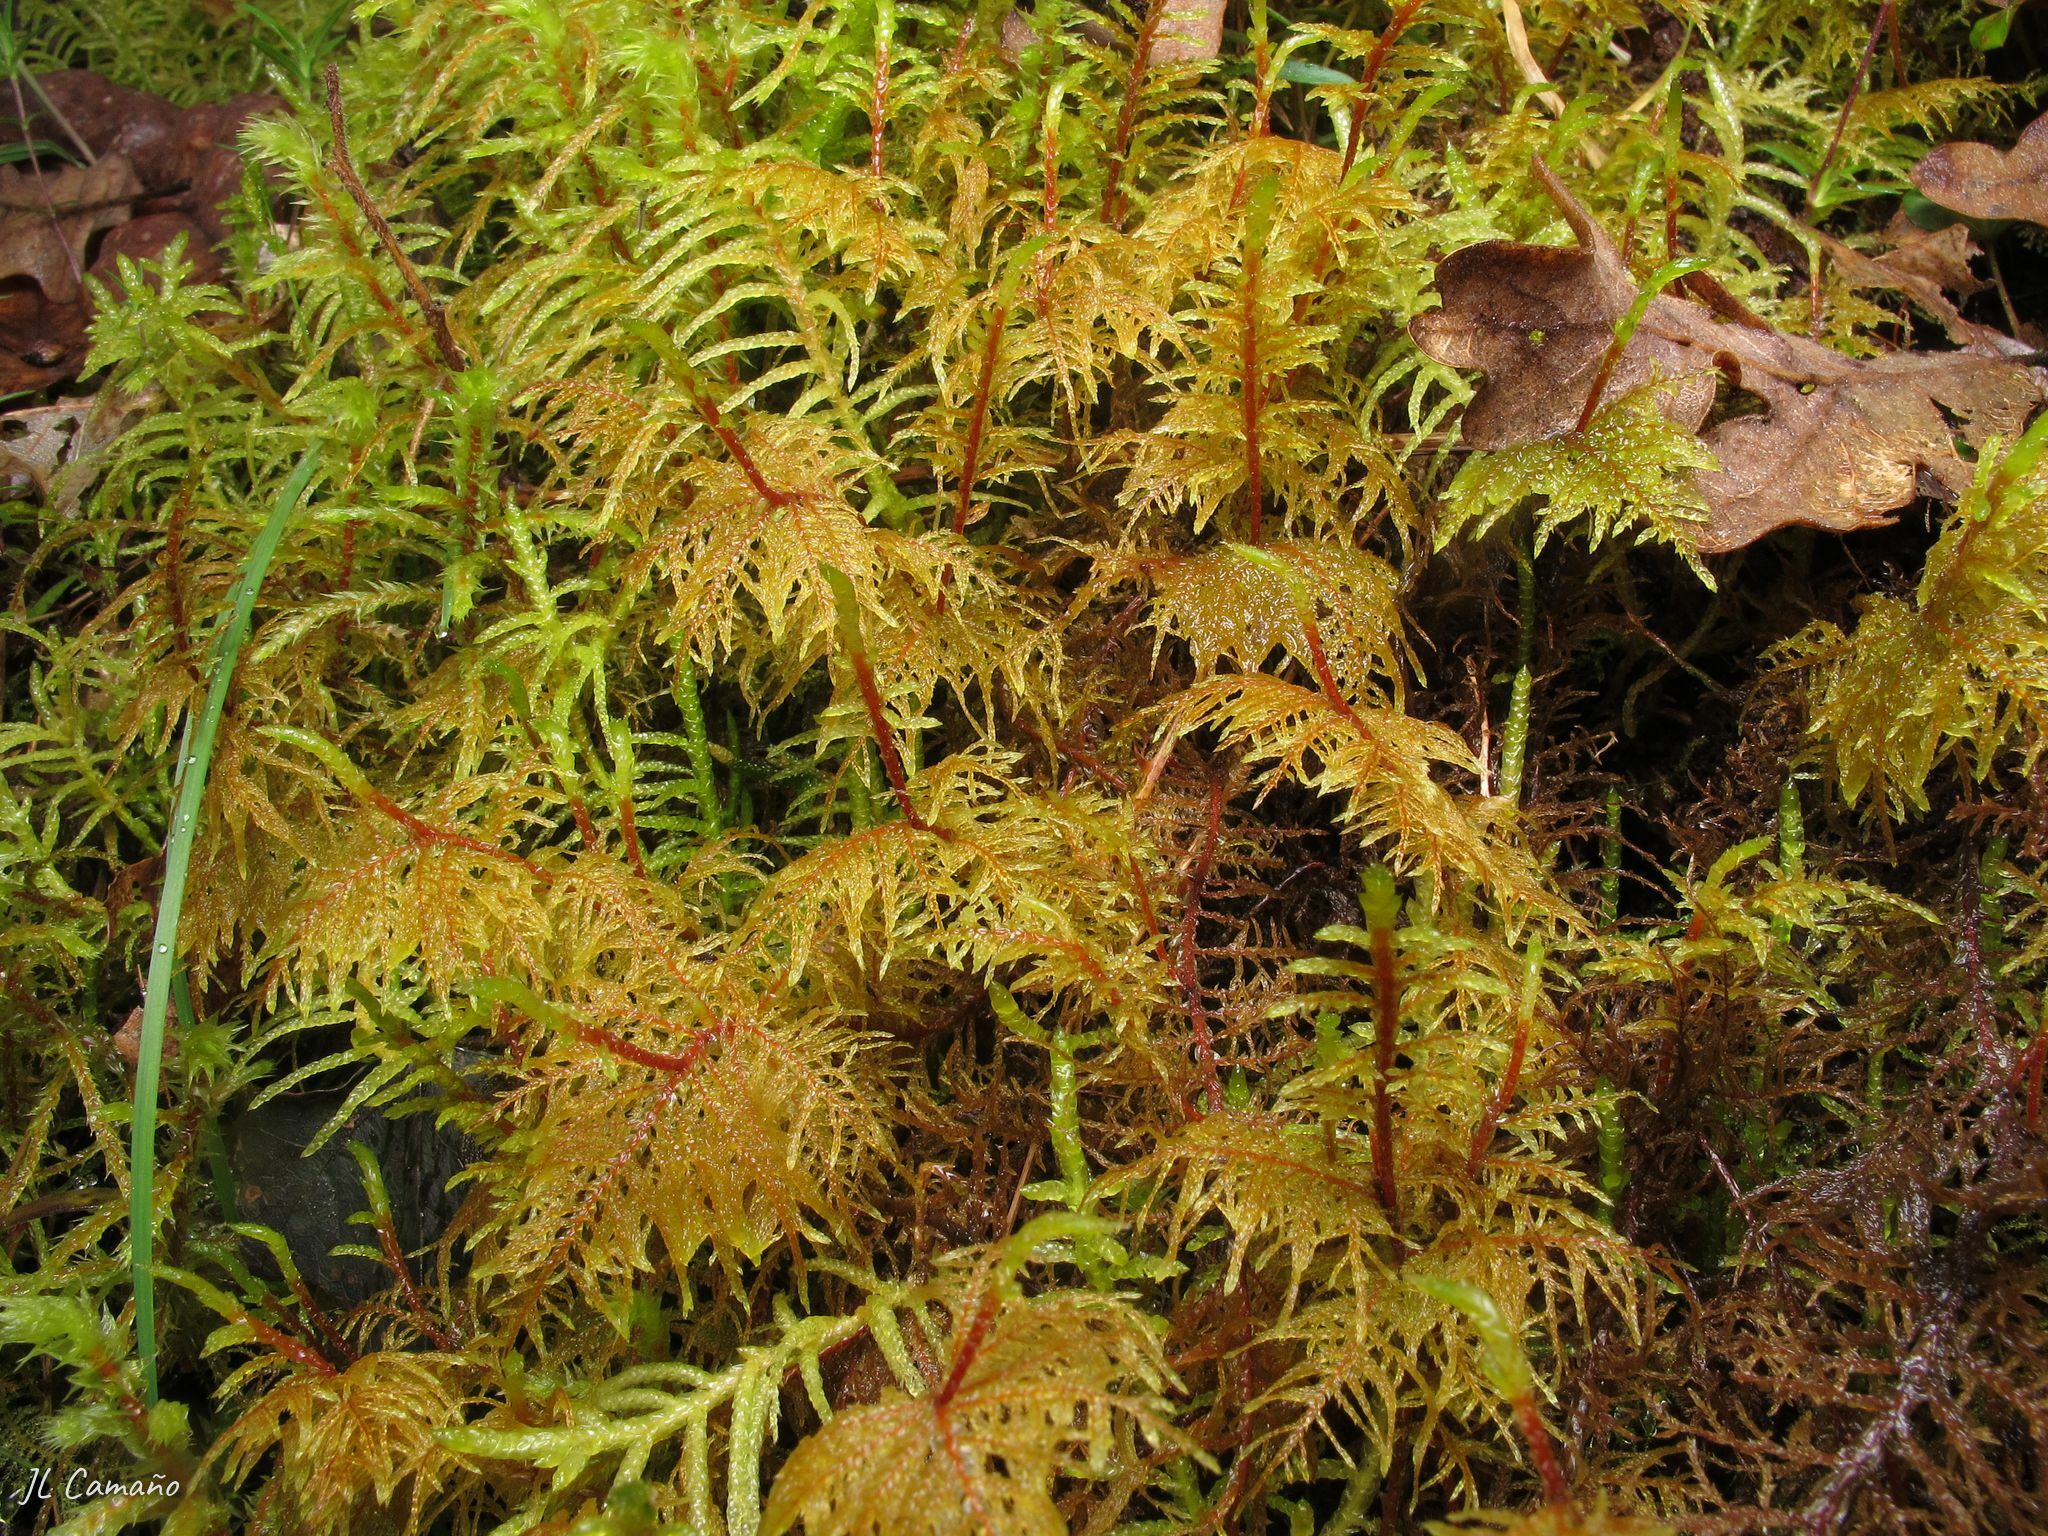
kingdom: Plantae
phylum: Bryophyta
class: Bryopsida
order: Hypnales
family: Hylocomiaceae
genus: Hylocomium
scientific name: Hylocomium splendens
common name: Stairstep moss
